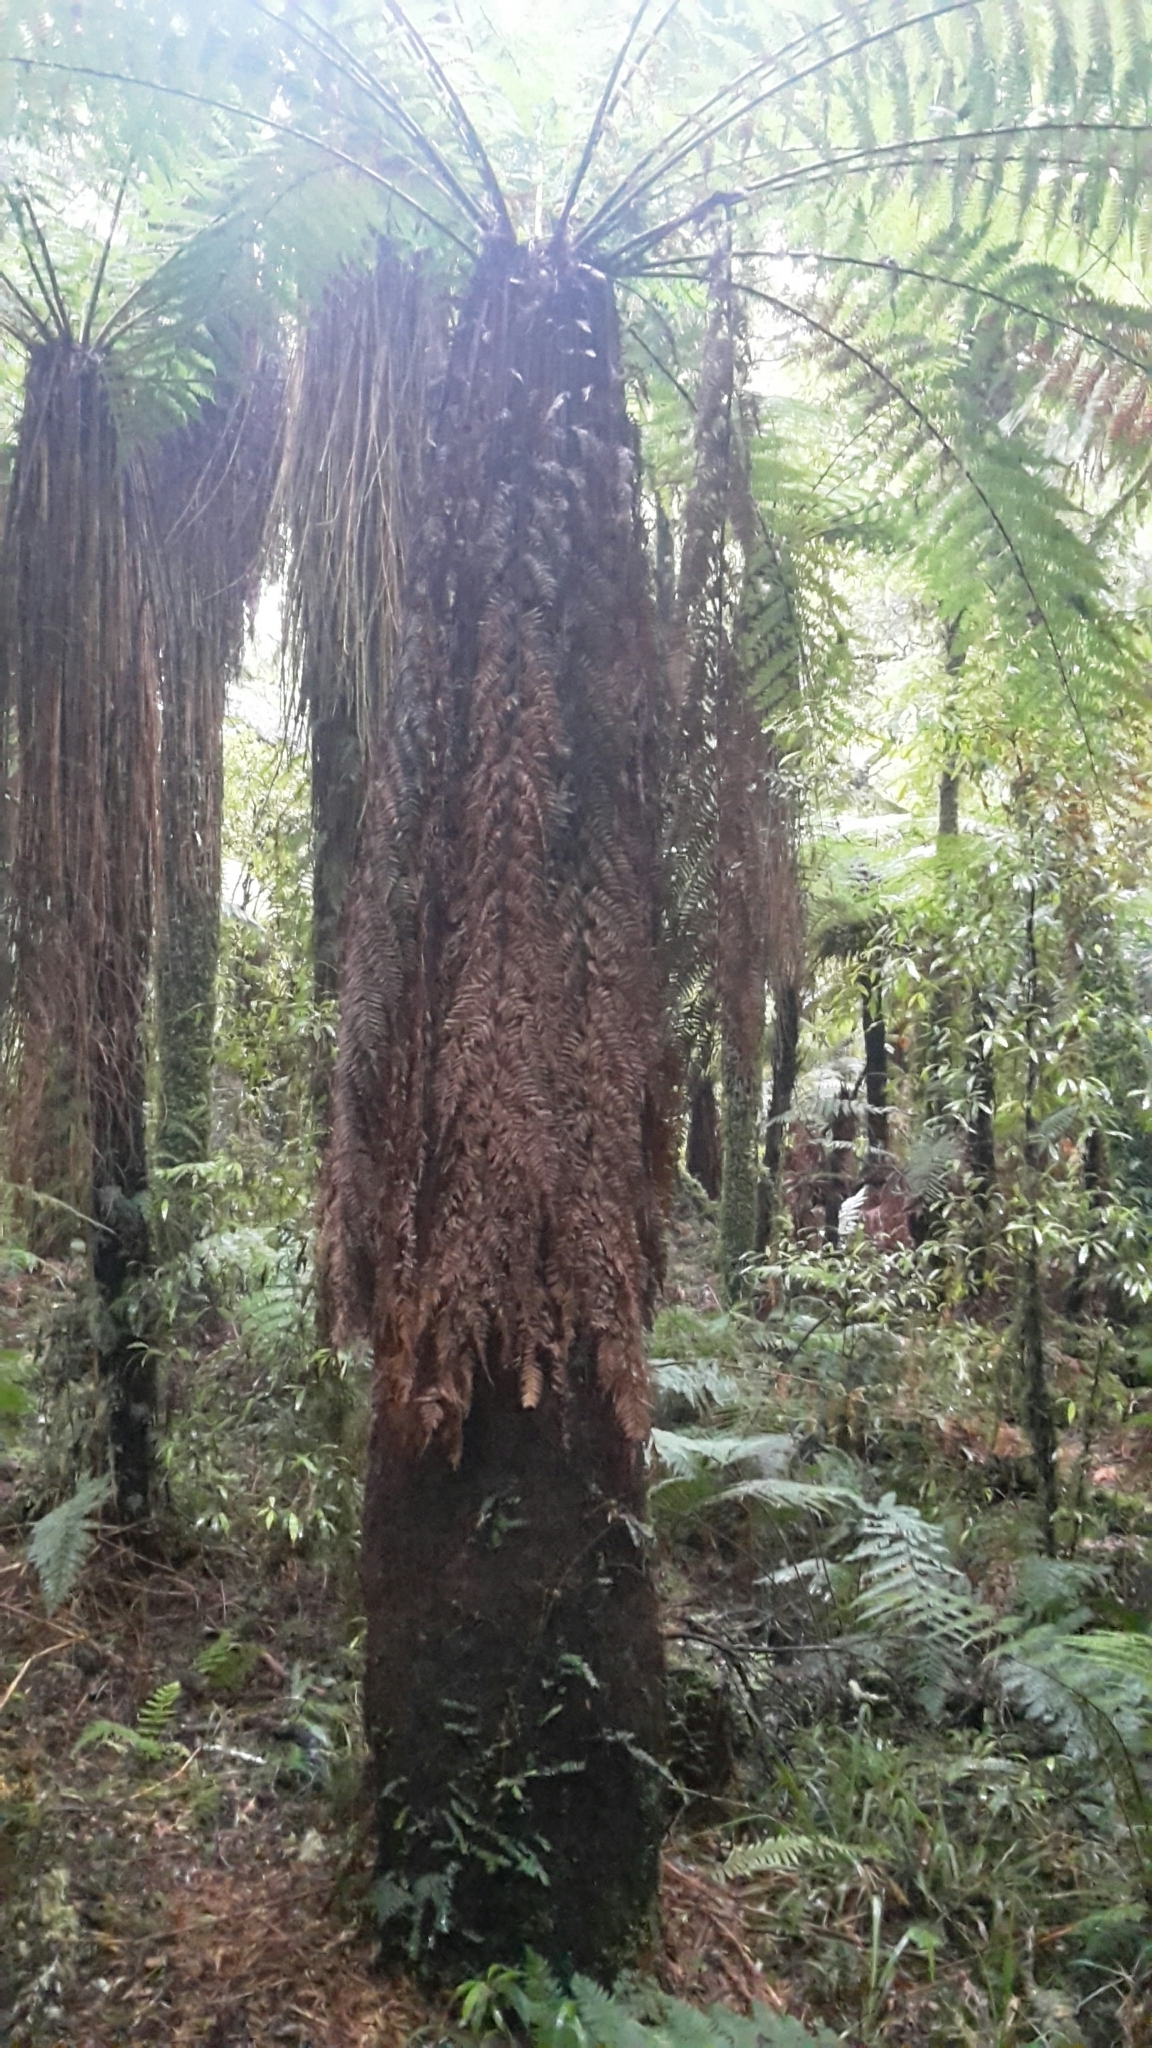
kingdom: Plantae
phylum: Tracheophyta
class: Polypodiopsida
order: Cyatheales
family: Dicksoniaceae
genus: Dicksonia
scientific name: Dicksonia fibrosa
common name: Golden tree fern
